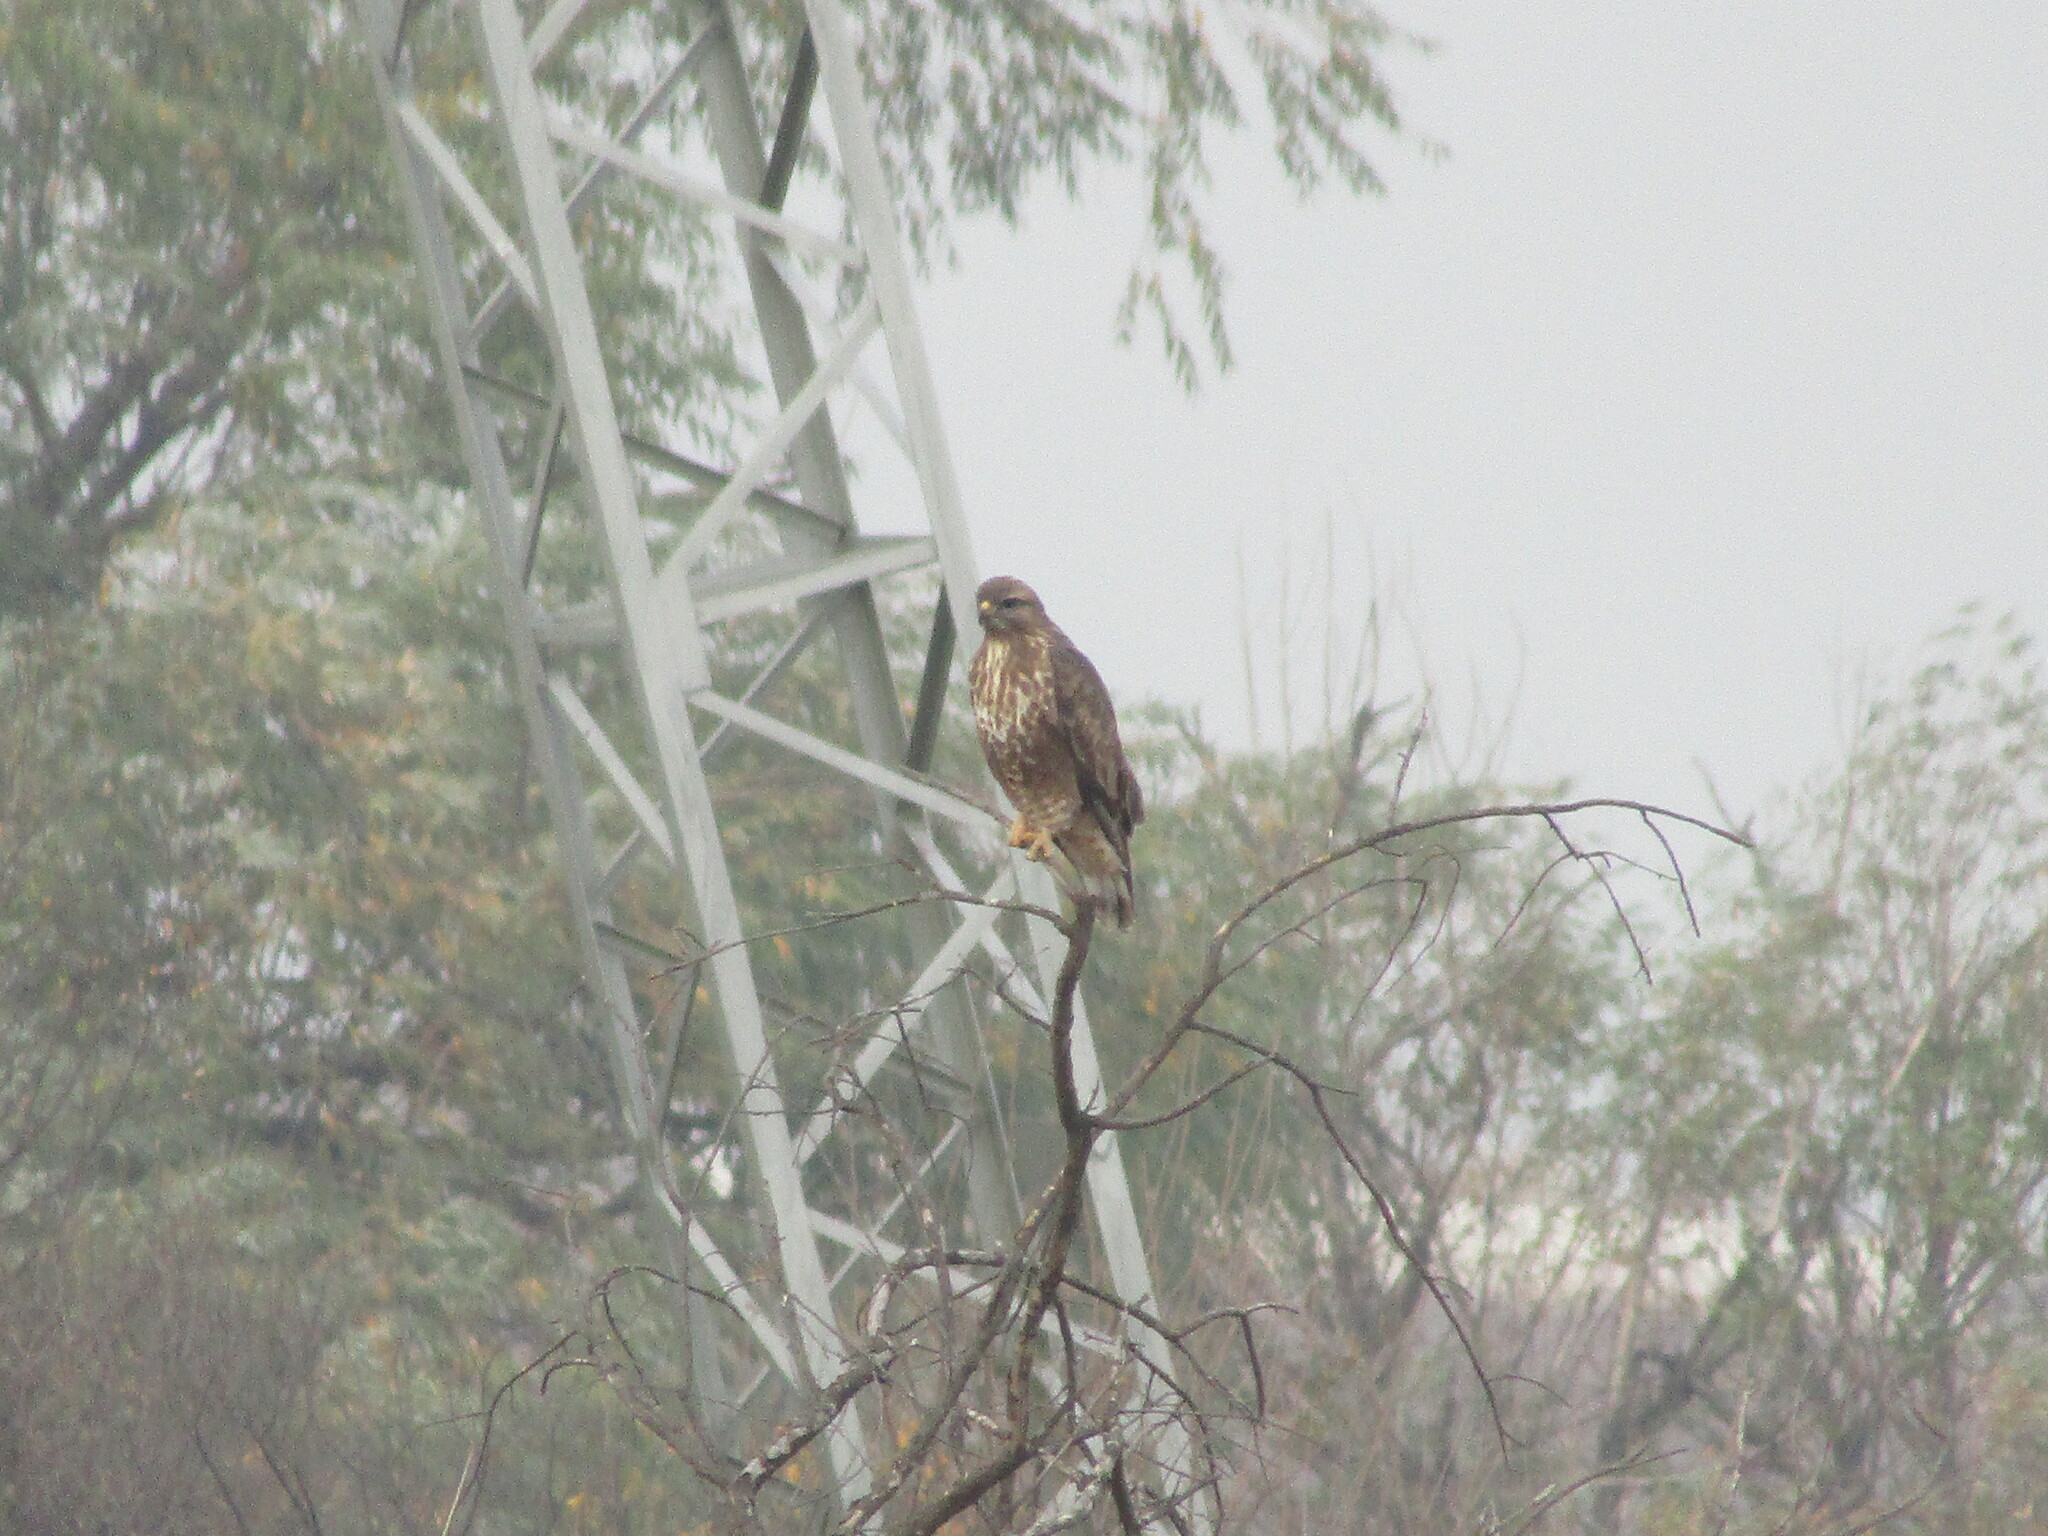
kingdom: Animalia
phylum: Chordata
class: Aves
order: Accipitriformes
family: Accipitridae
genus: Buteo
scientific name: Buteo buteo
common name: Common buzzard
